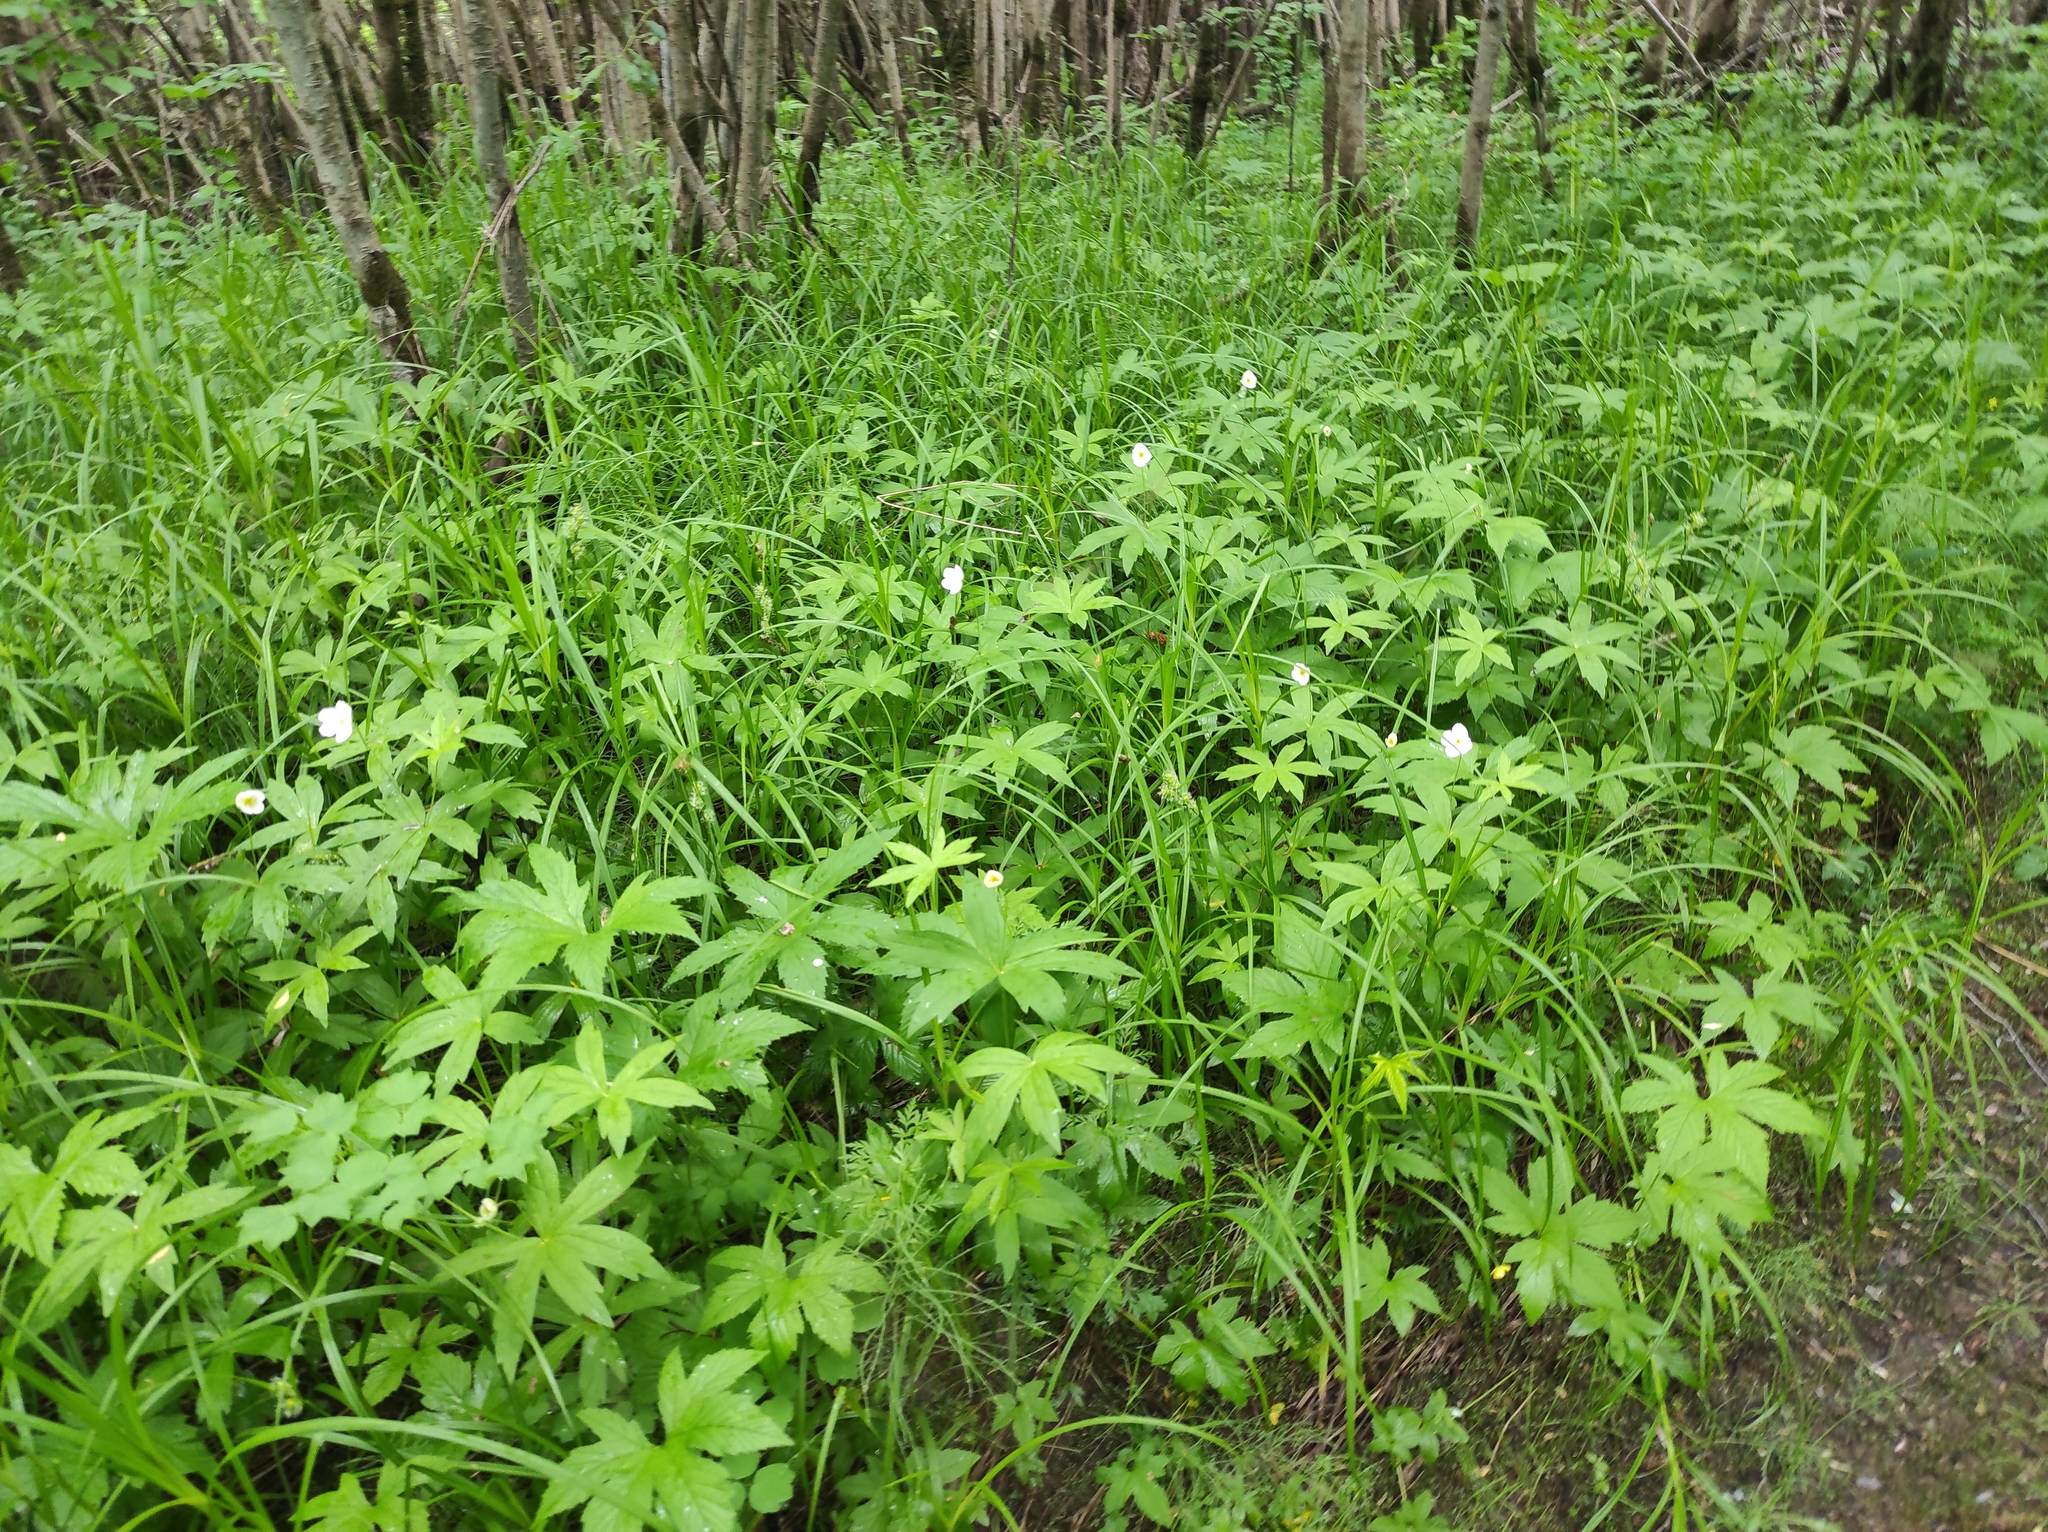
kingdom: Plantae
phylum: Tracheophyta
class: Magnoliopsida
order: Ranunculales
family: Ranunculaceae
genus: Anemonastrum
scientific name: Anemonastrum dichotomum
